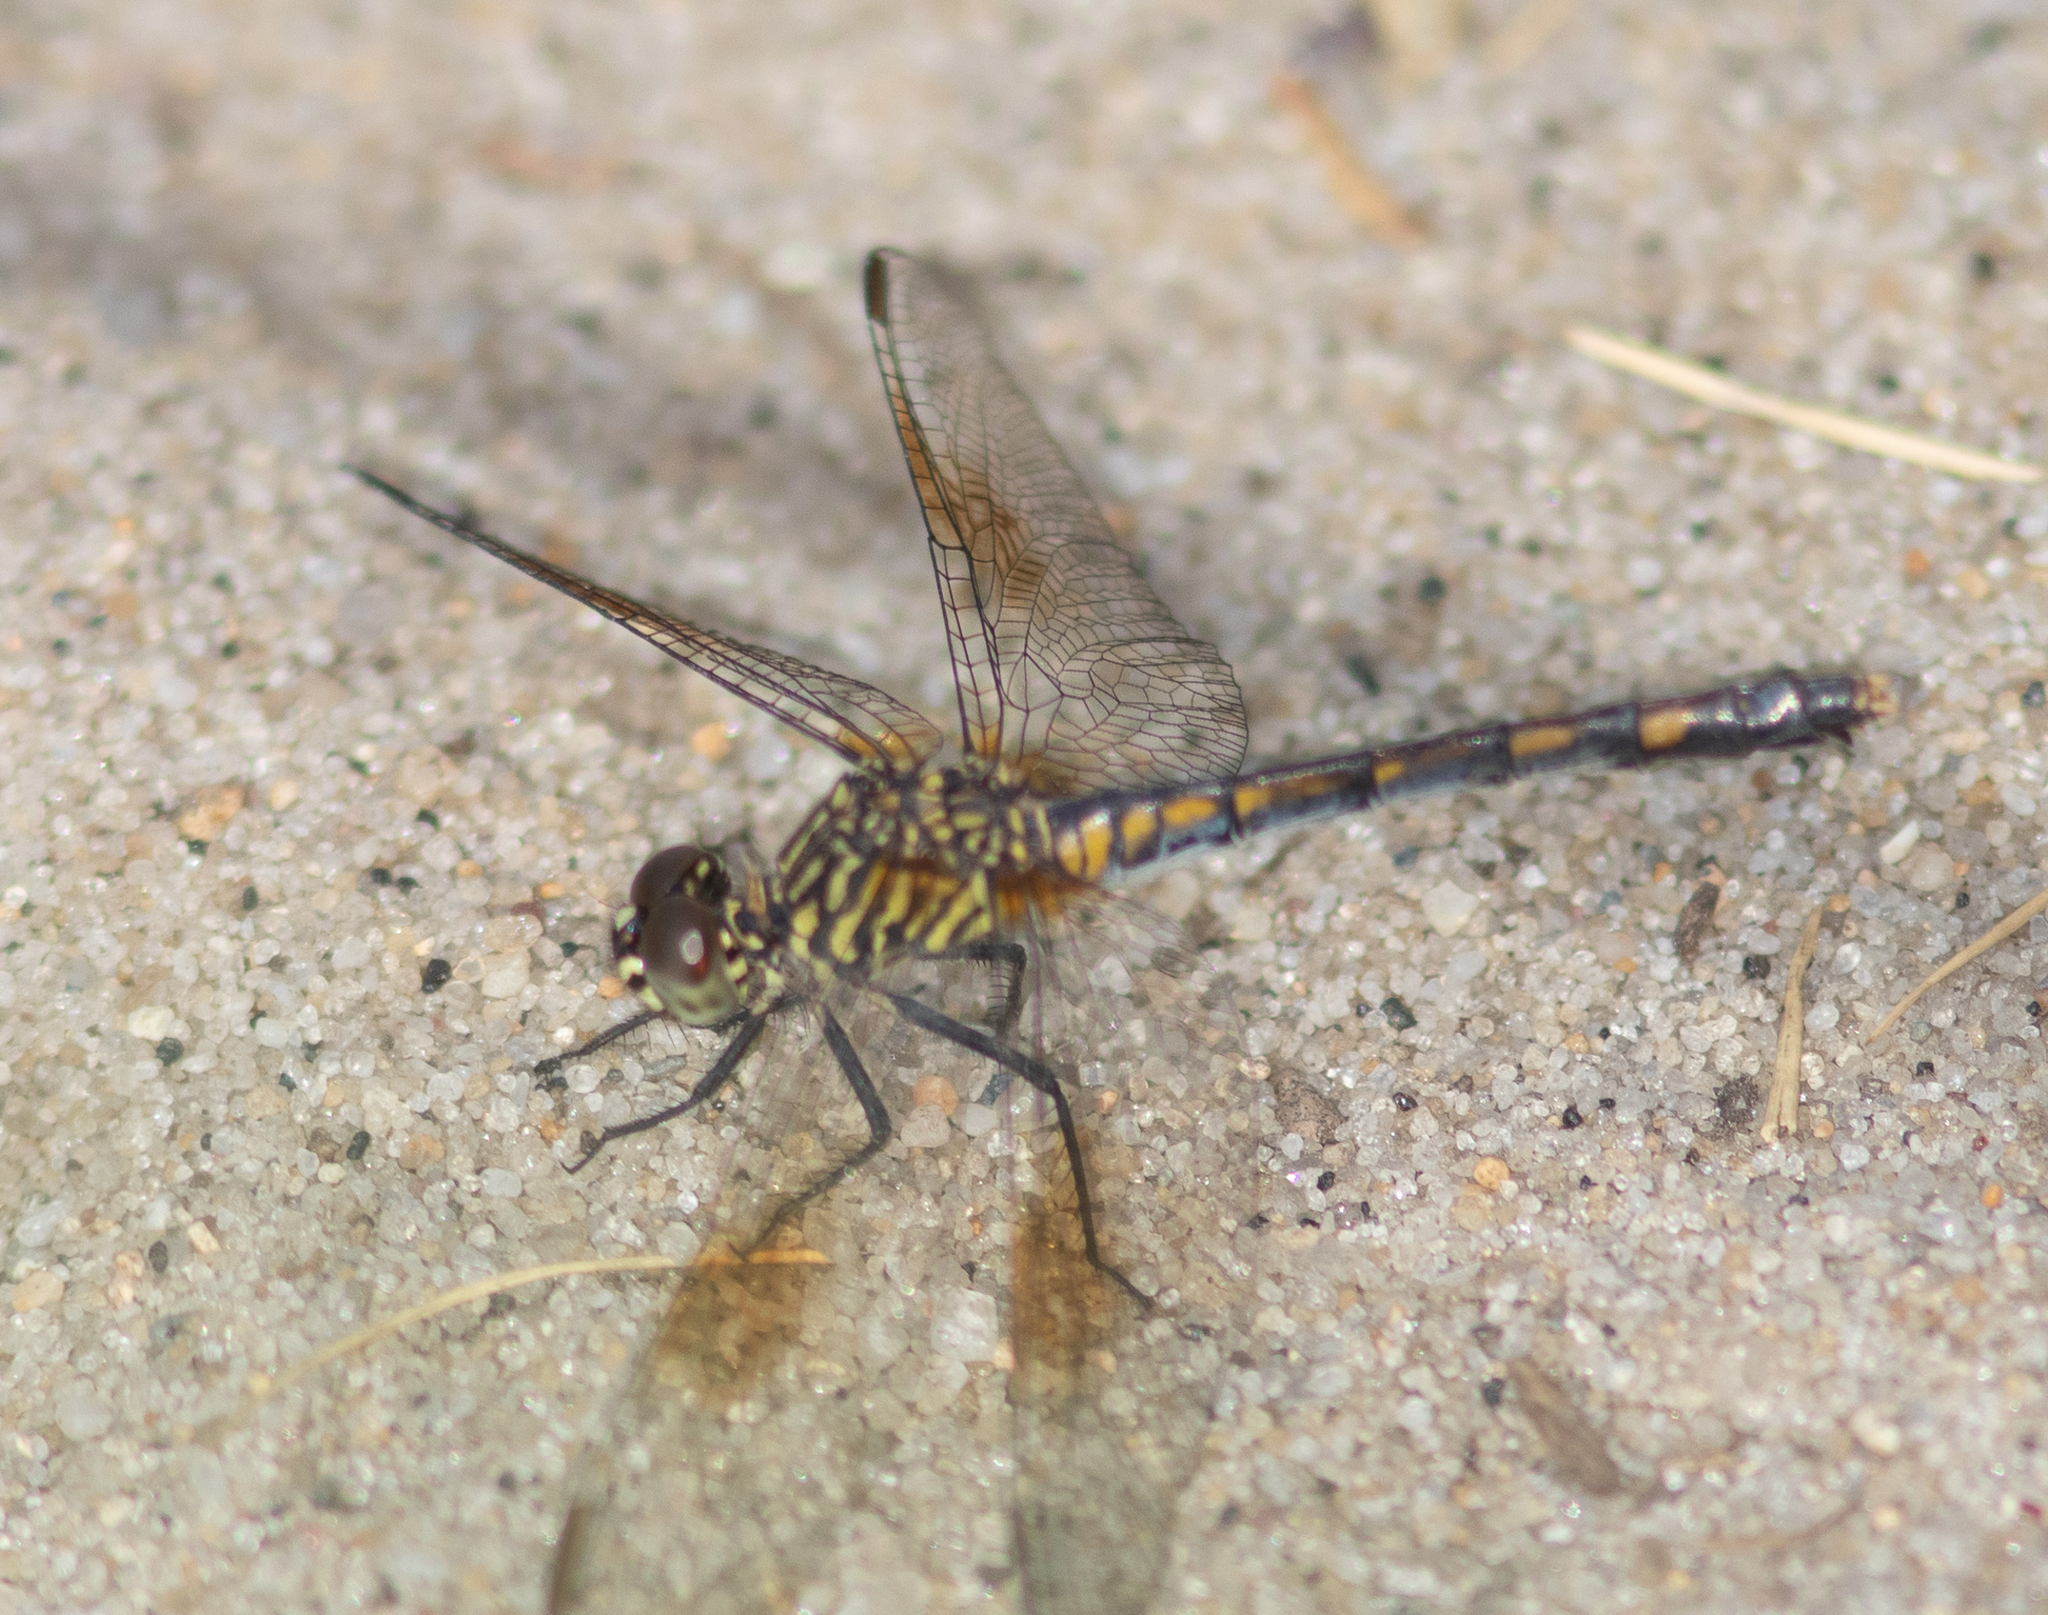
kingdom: Animalia
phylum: Arthropoda
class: Insecta
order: Odonata
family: Libellulidae
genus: Erythrodiplax
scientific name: Erythrodiplax berenice
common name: Seaside dragonlet
